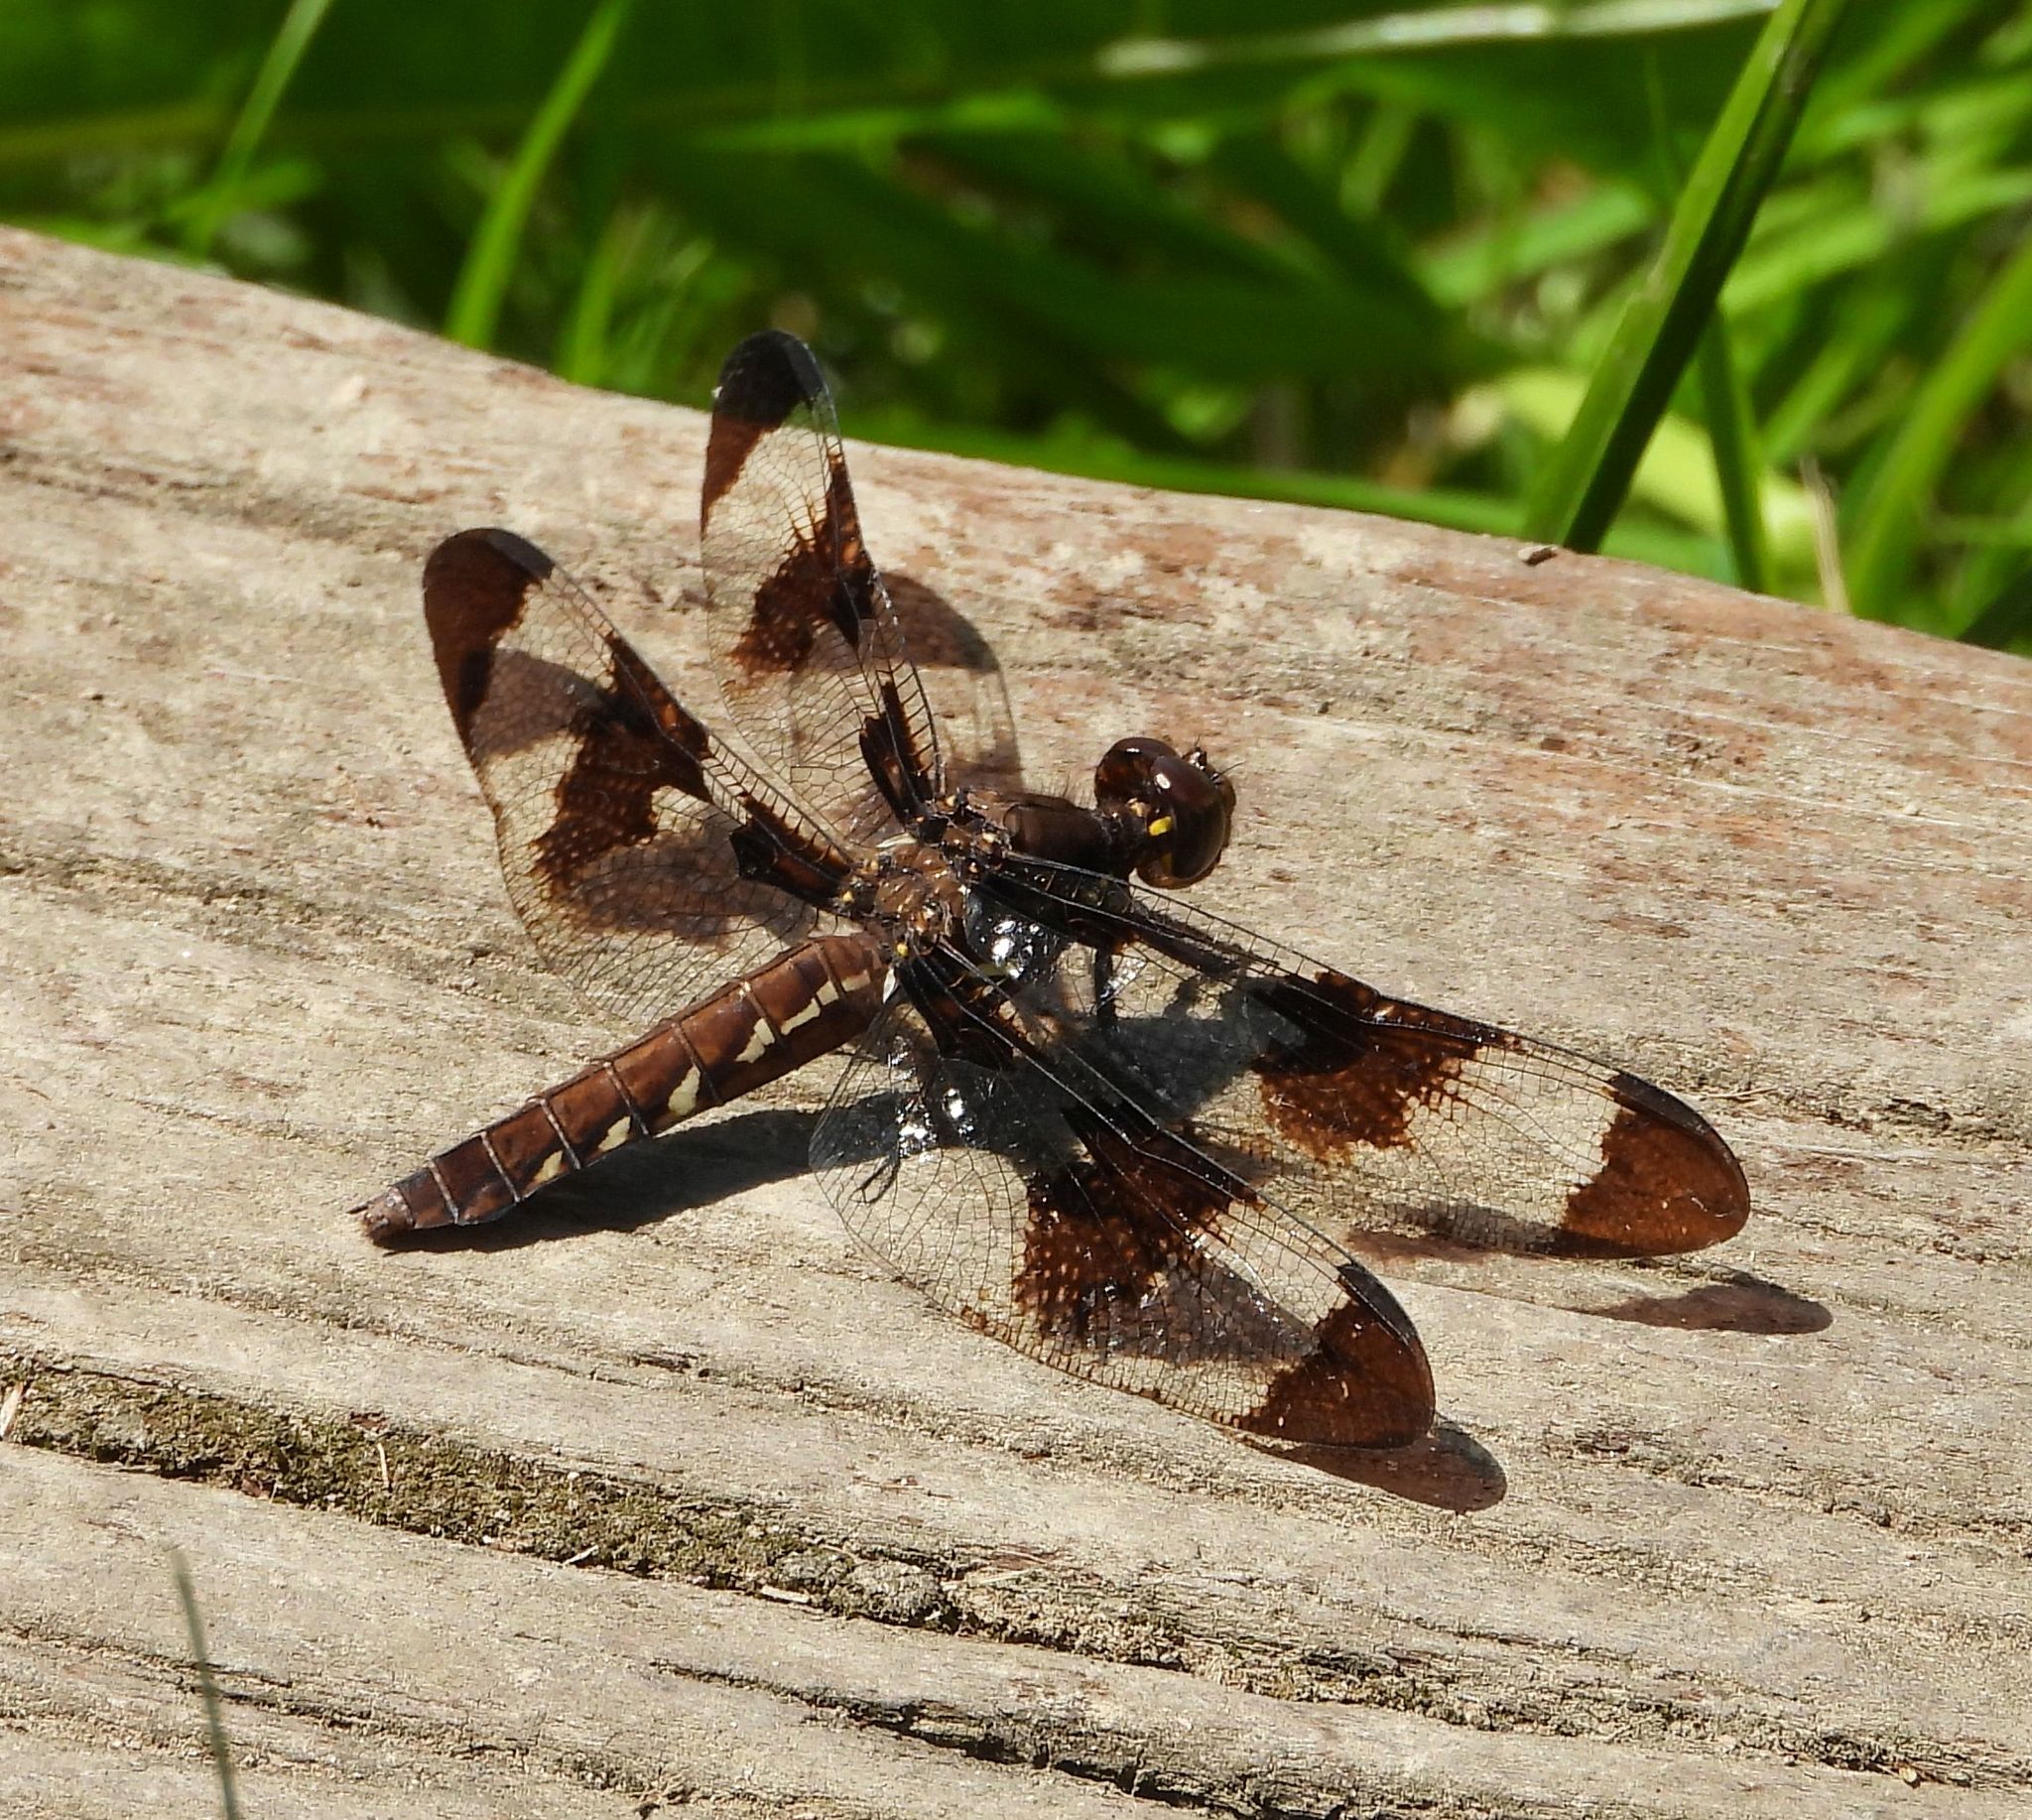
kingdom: Animalia
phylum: Arthropoda
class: Insecta
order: Odonata
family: Libellulidae
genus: Plathemis
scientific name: Plathemis lydia
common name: Common whitetail
